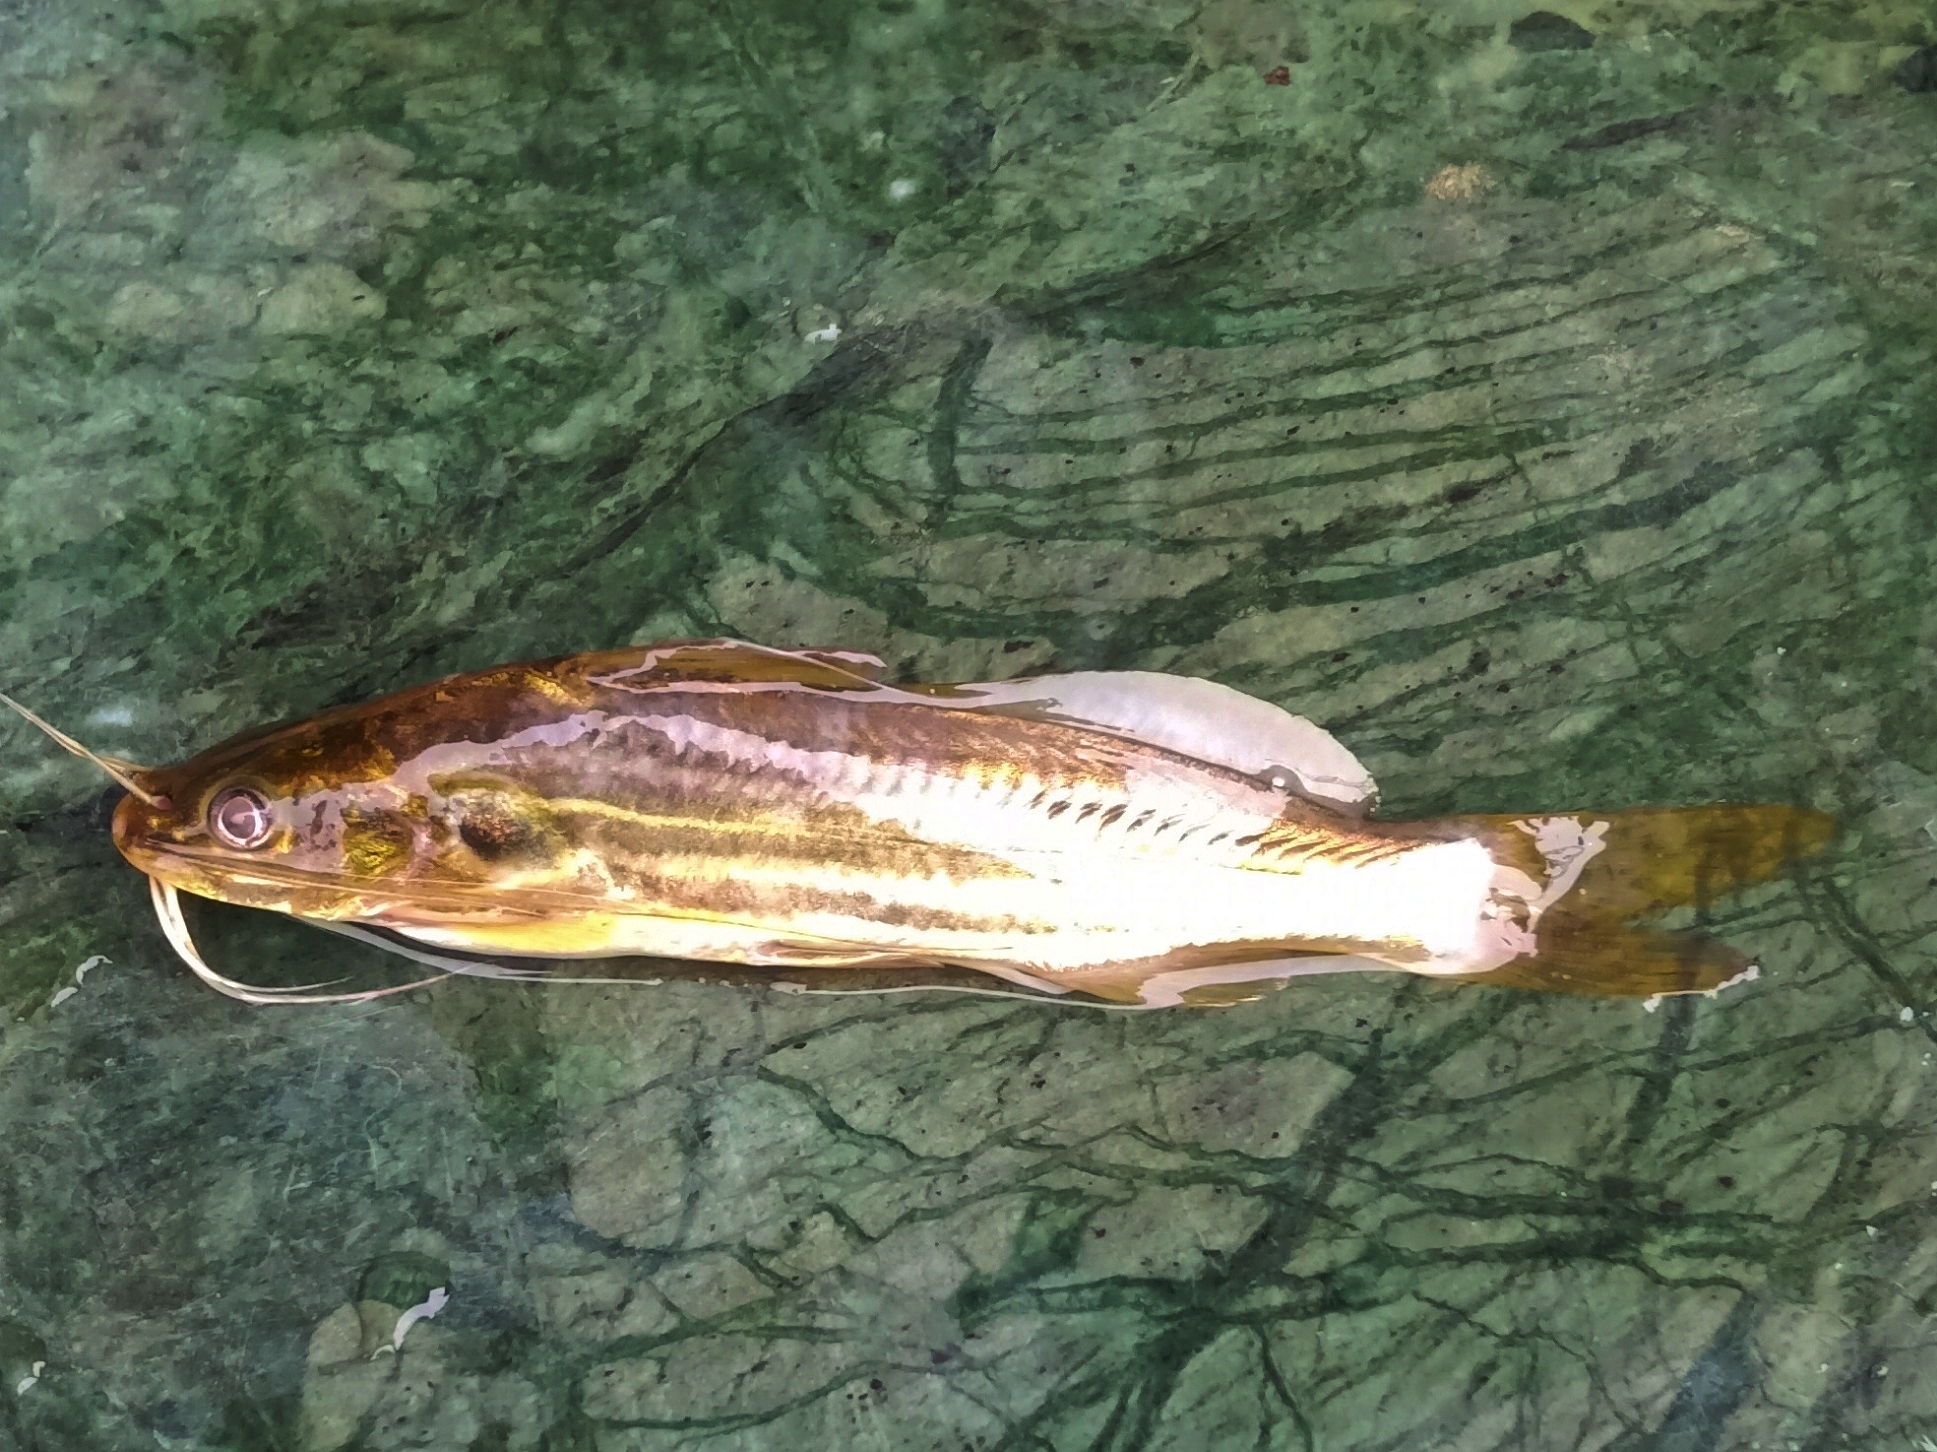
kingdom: Animalia
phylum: Chordata
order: Siluriformes
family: Bagridae
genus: Mystus
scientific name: Mystus vittatus
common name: Striped dwarf catfish
